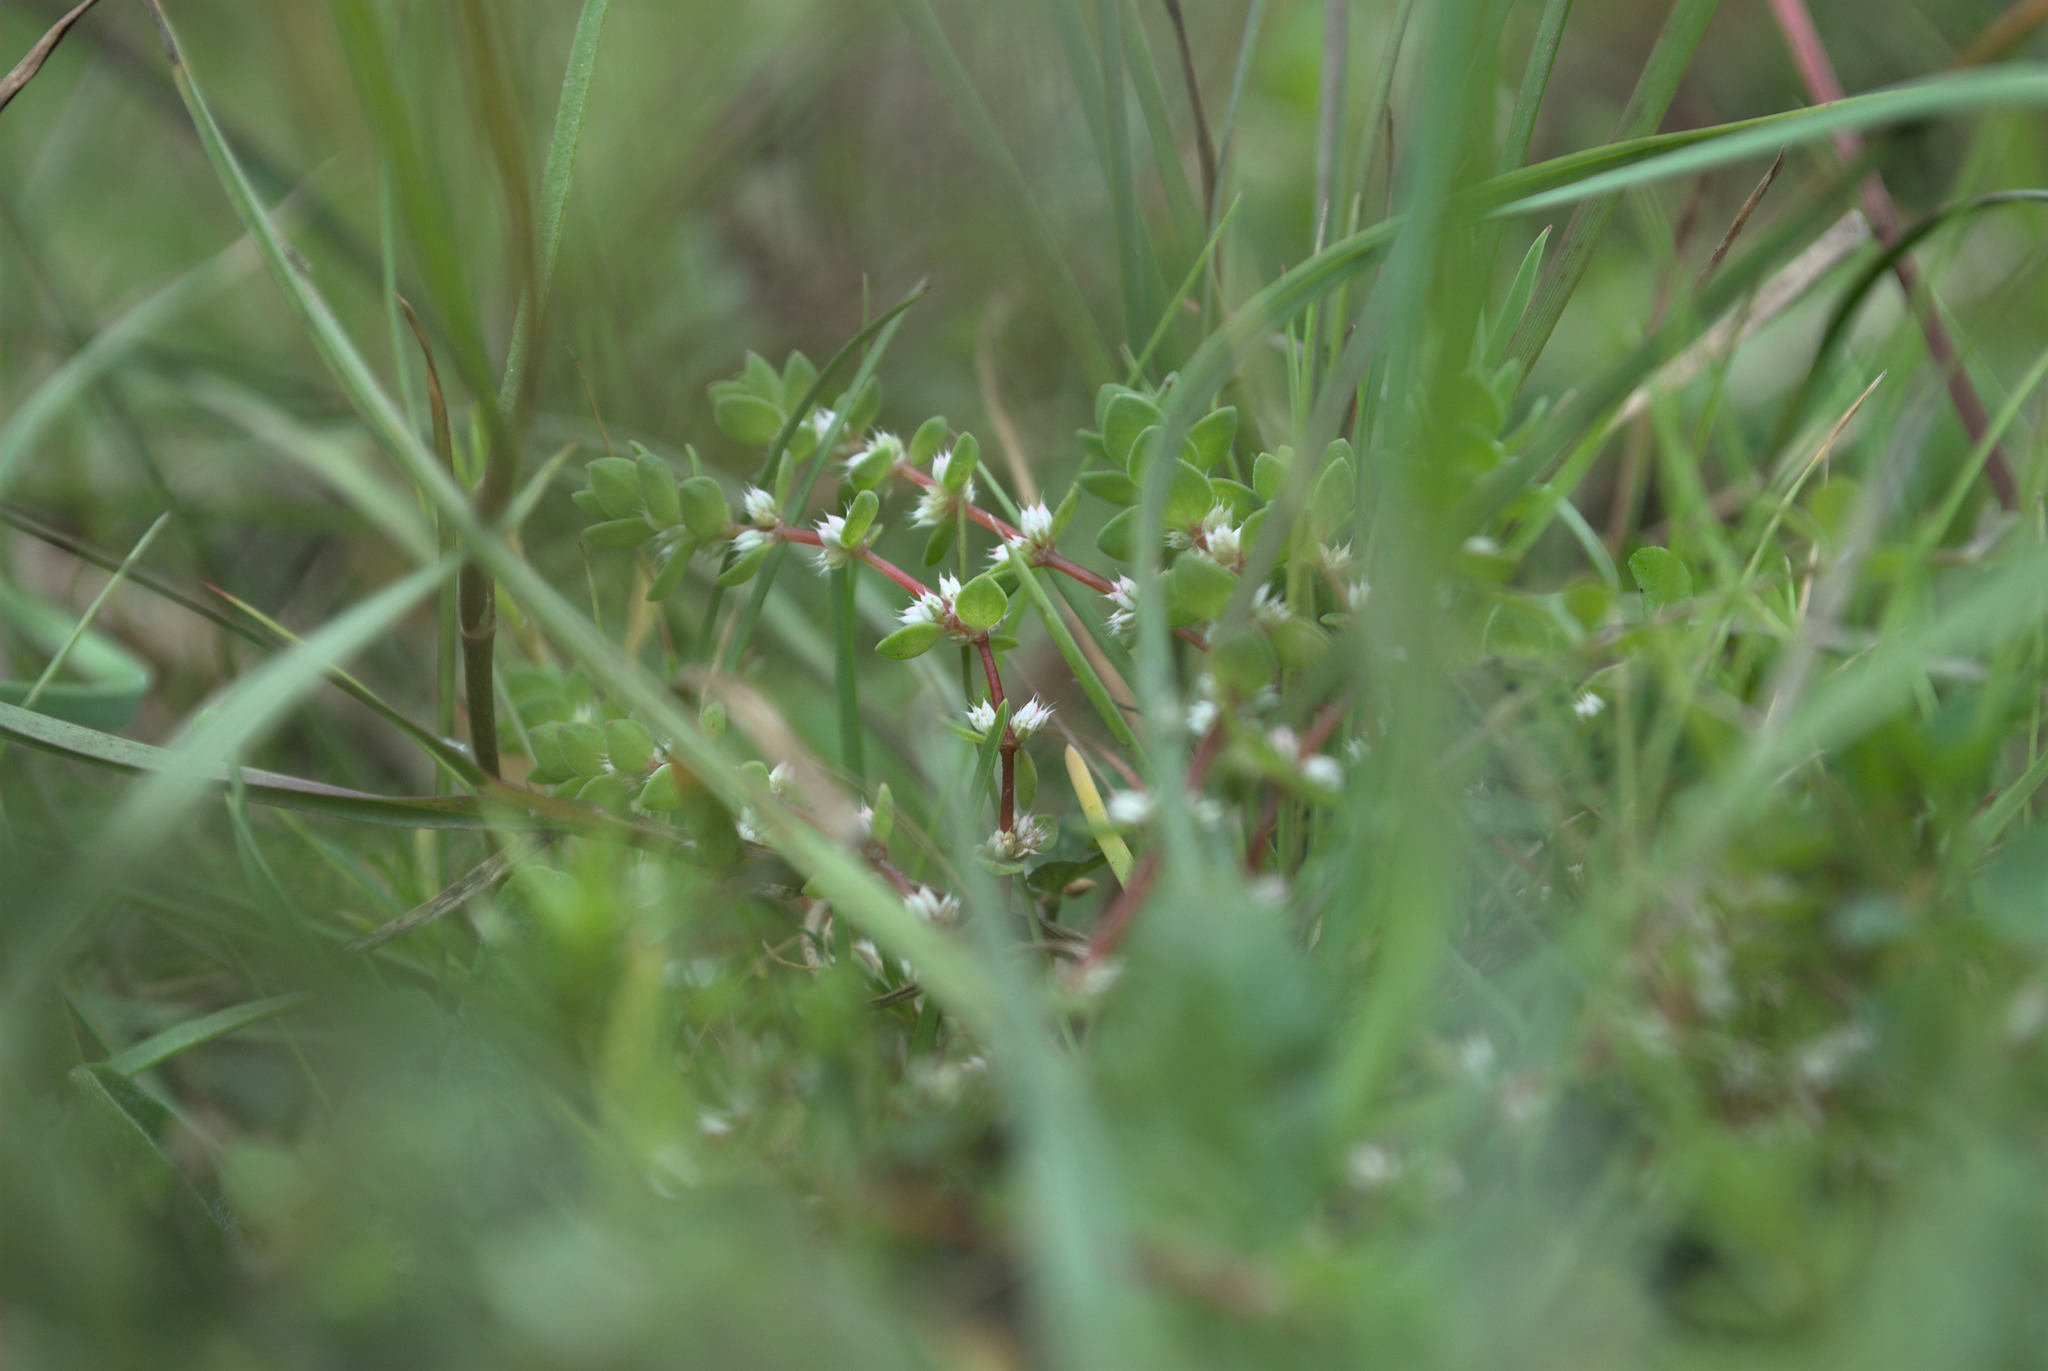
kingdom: Plantae
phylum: Tracheophyta
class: Magnoliopsida
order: Caryophyllales
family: Caryophyllaceae
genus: Illecebrum
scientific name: Illecebrum verticillatum
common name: Coral necklace
